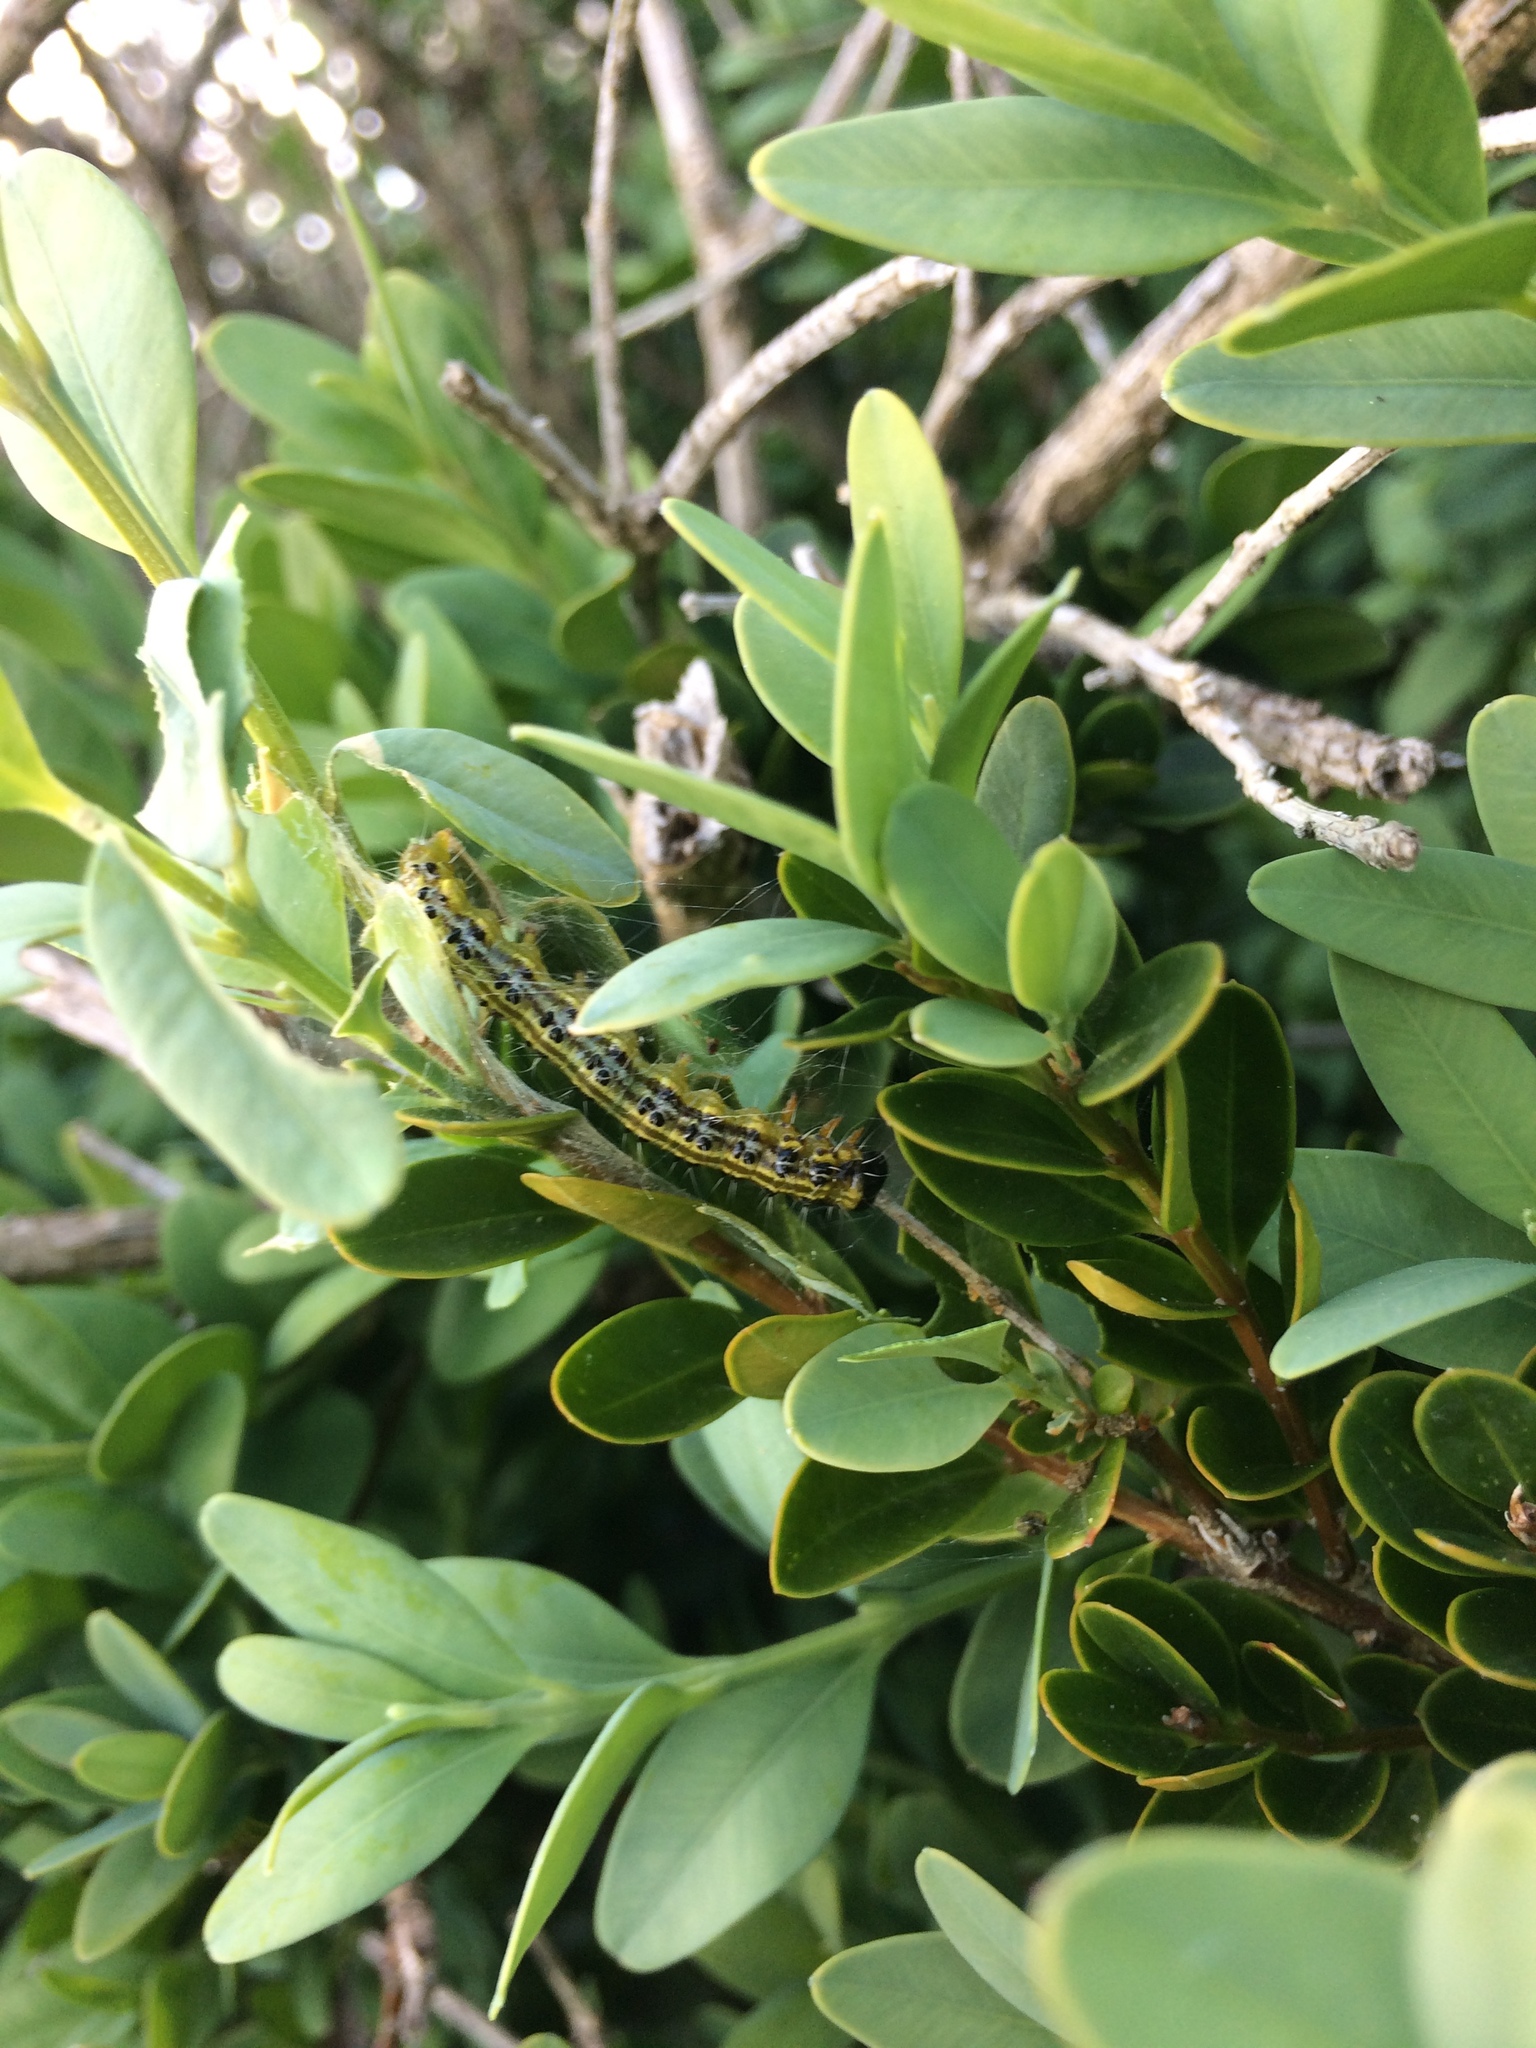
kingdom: Animalia
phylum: Arthropoda
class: Insecta
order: Lepidoptera
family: Crambidae
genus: Cydalima
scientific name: Cydalima perspectalis
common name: Box tree moth
